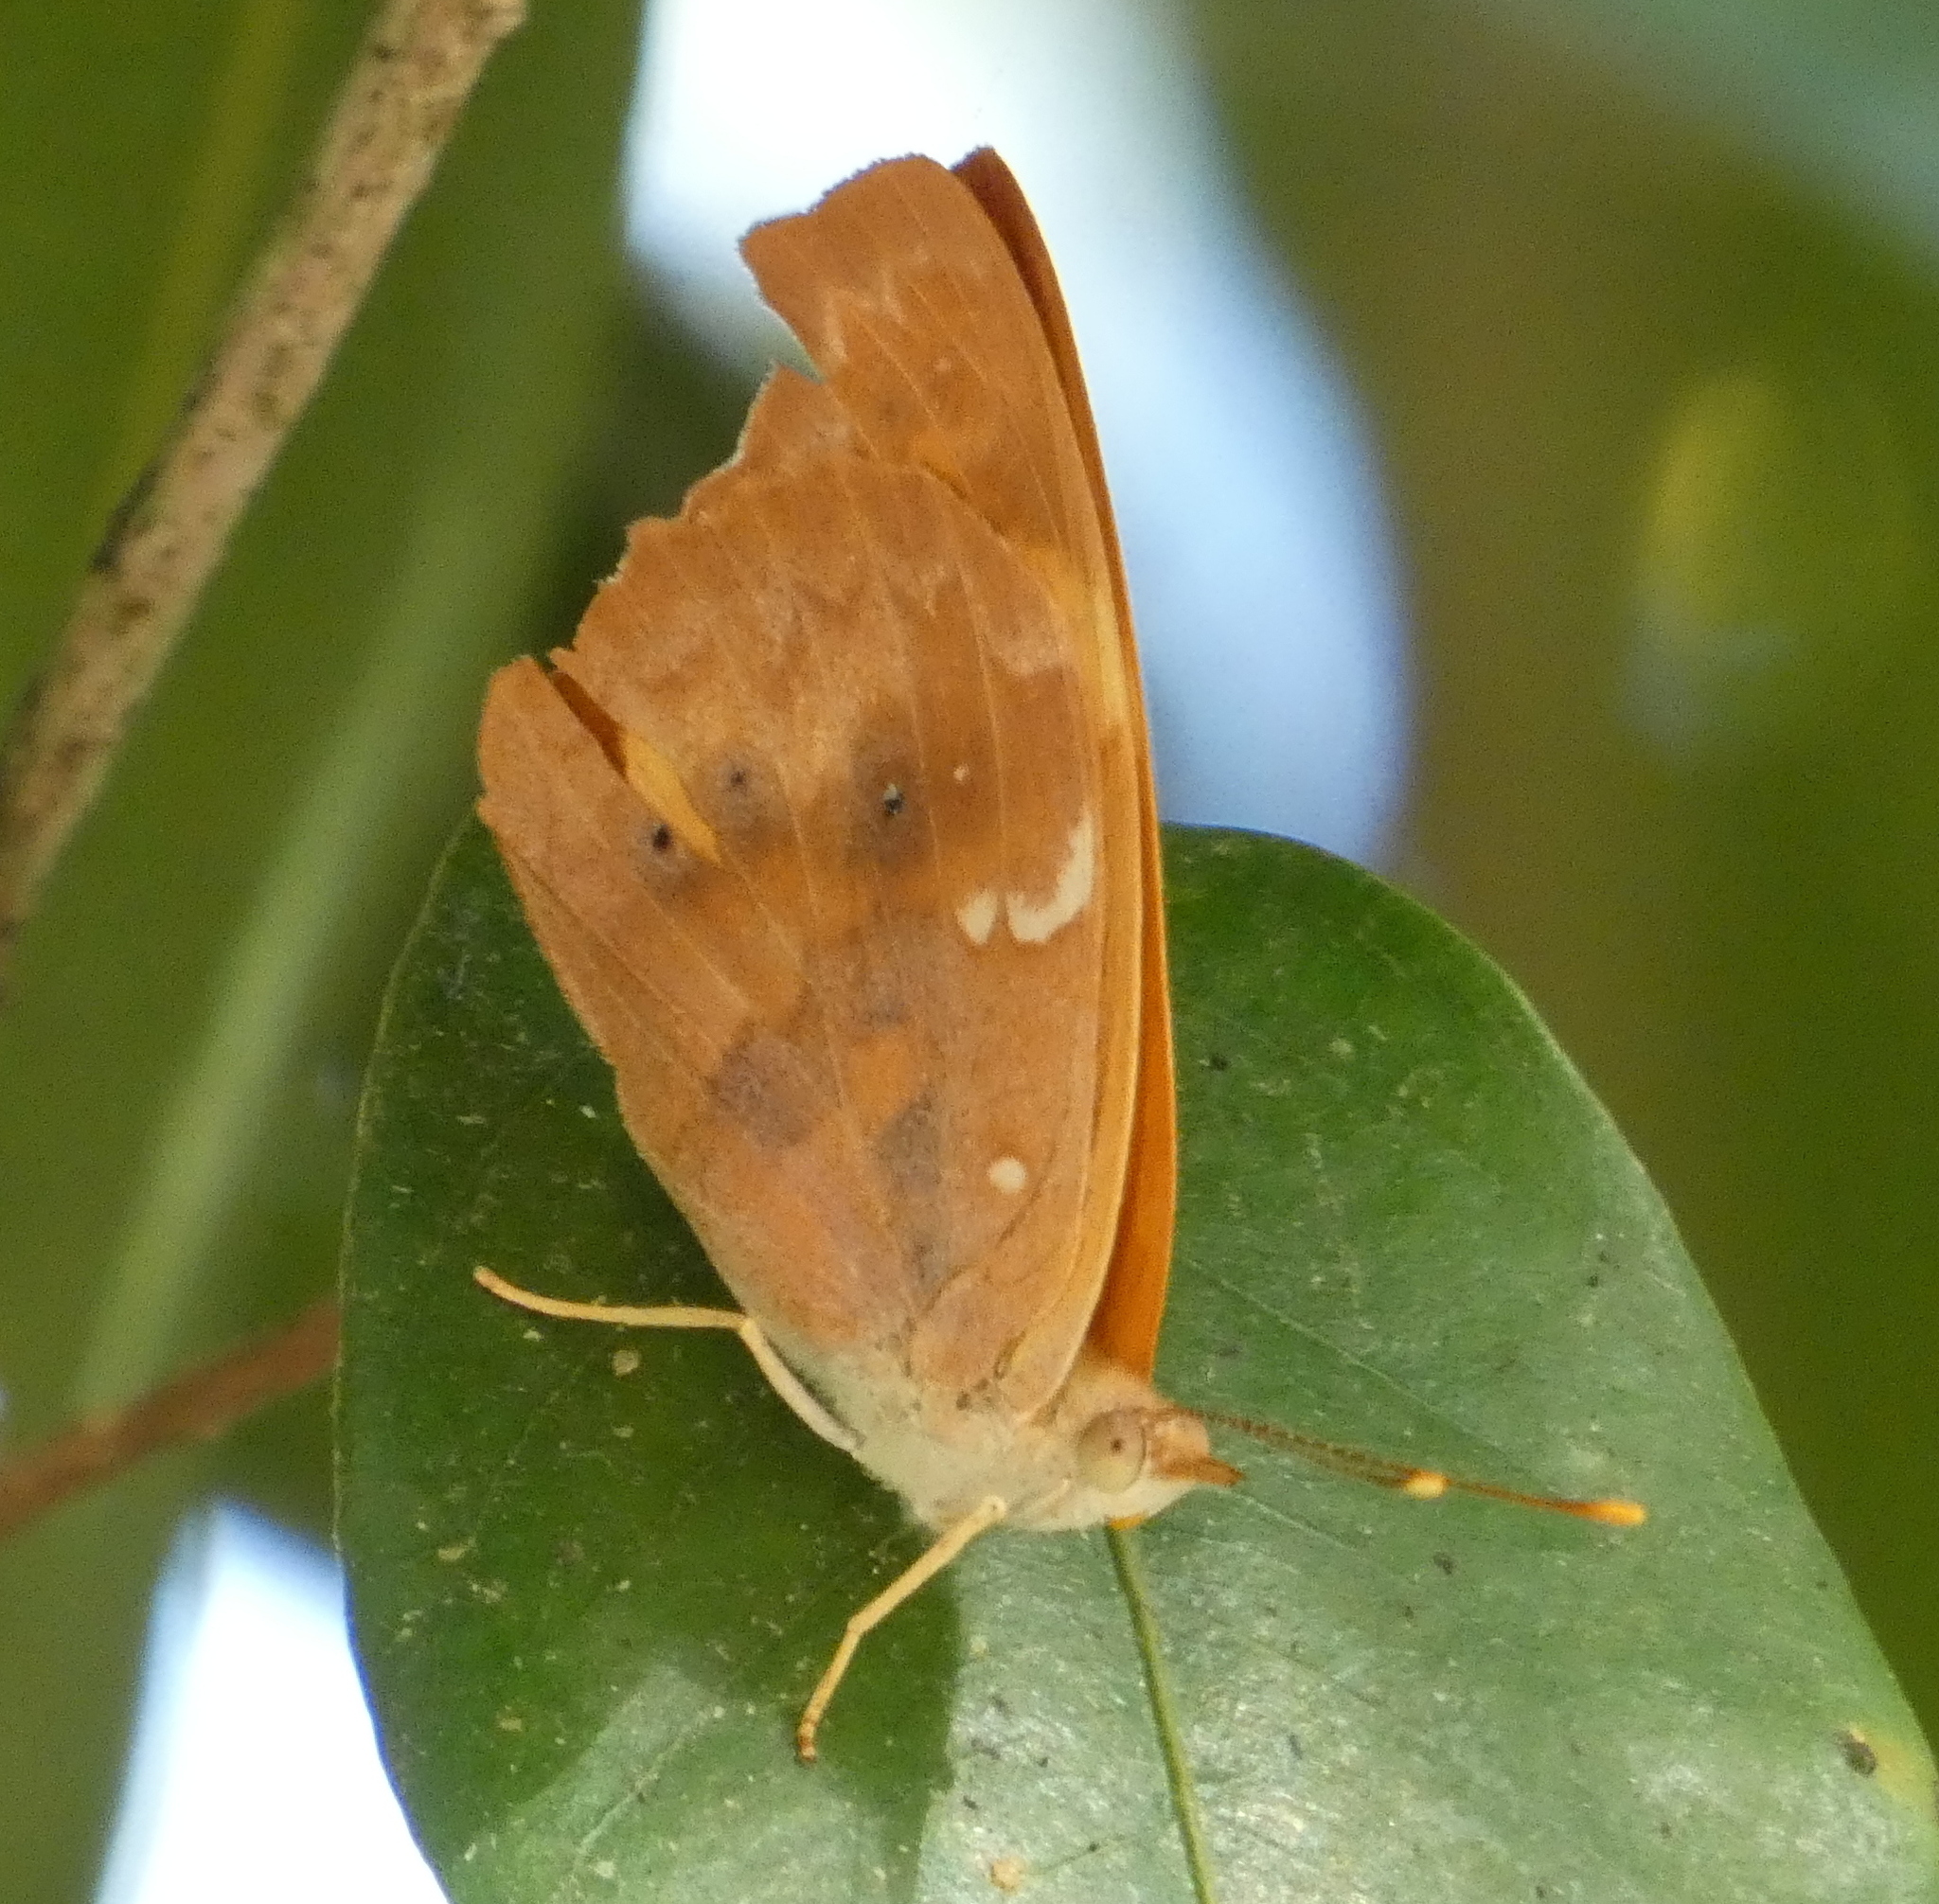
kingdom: Animalia
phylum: Arthropoda
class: Insecta
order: Lepidoptera
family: Nymphalidae
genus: Temenis
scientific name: Temenis laothoe
